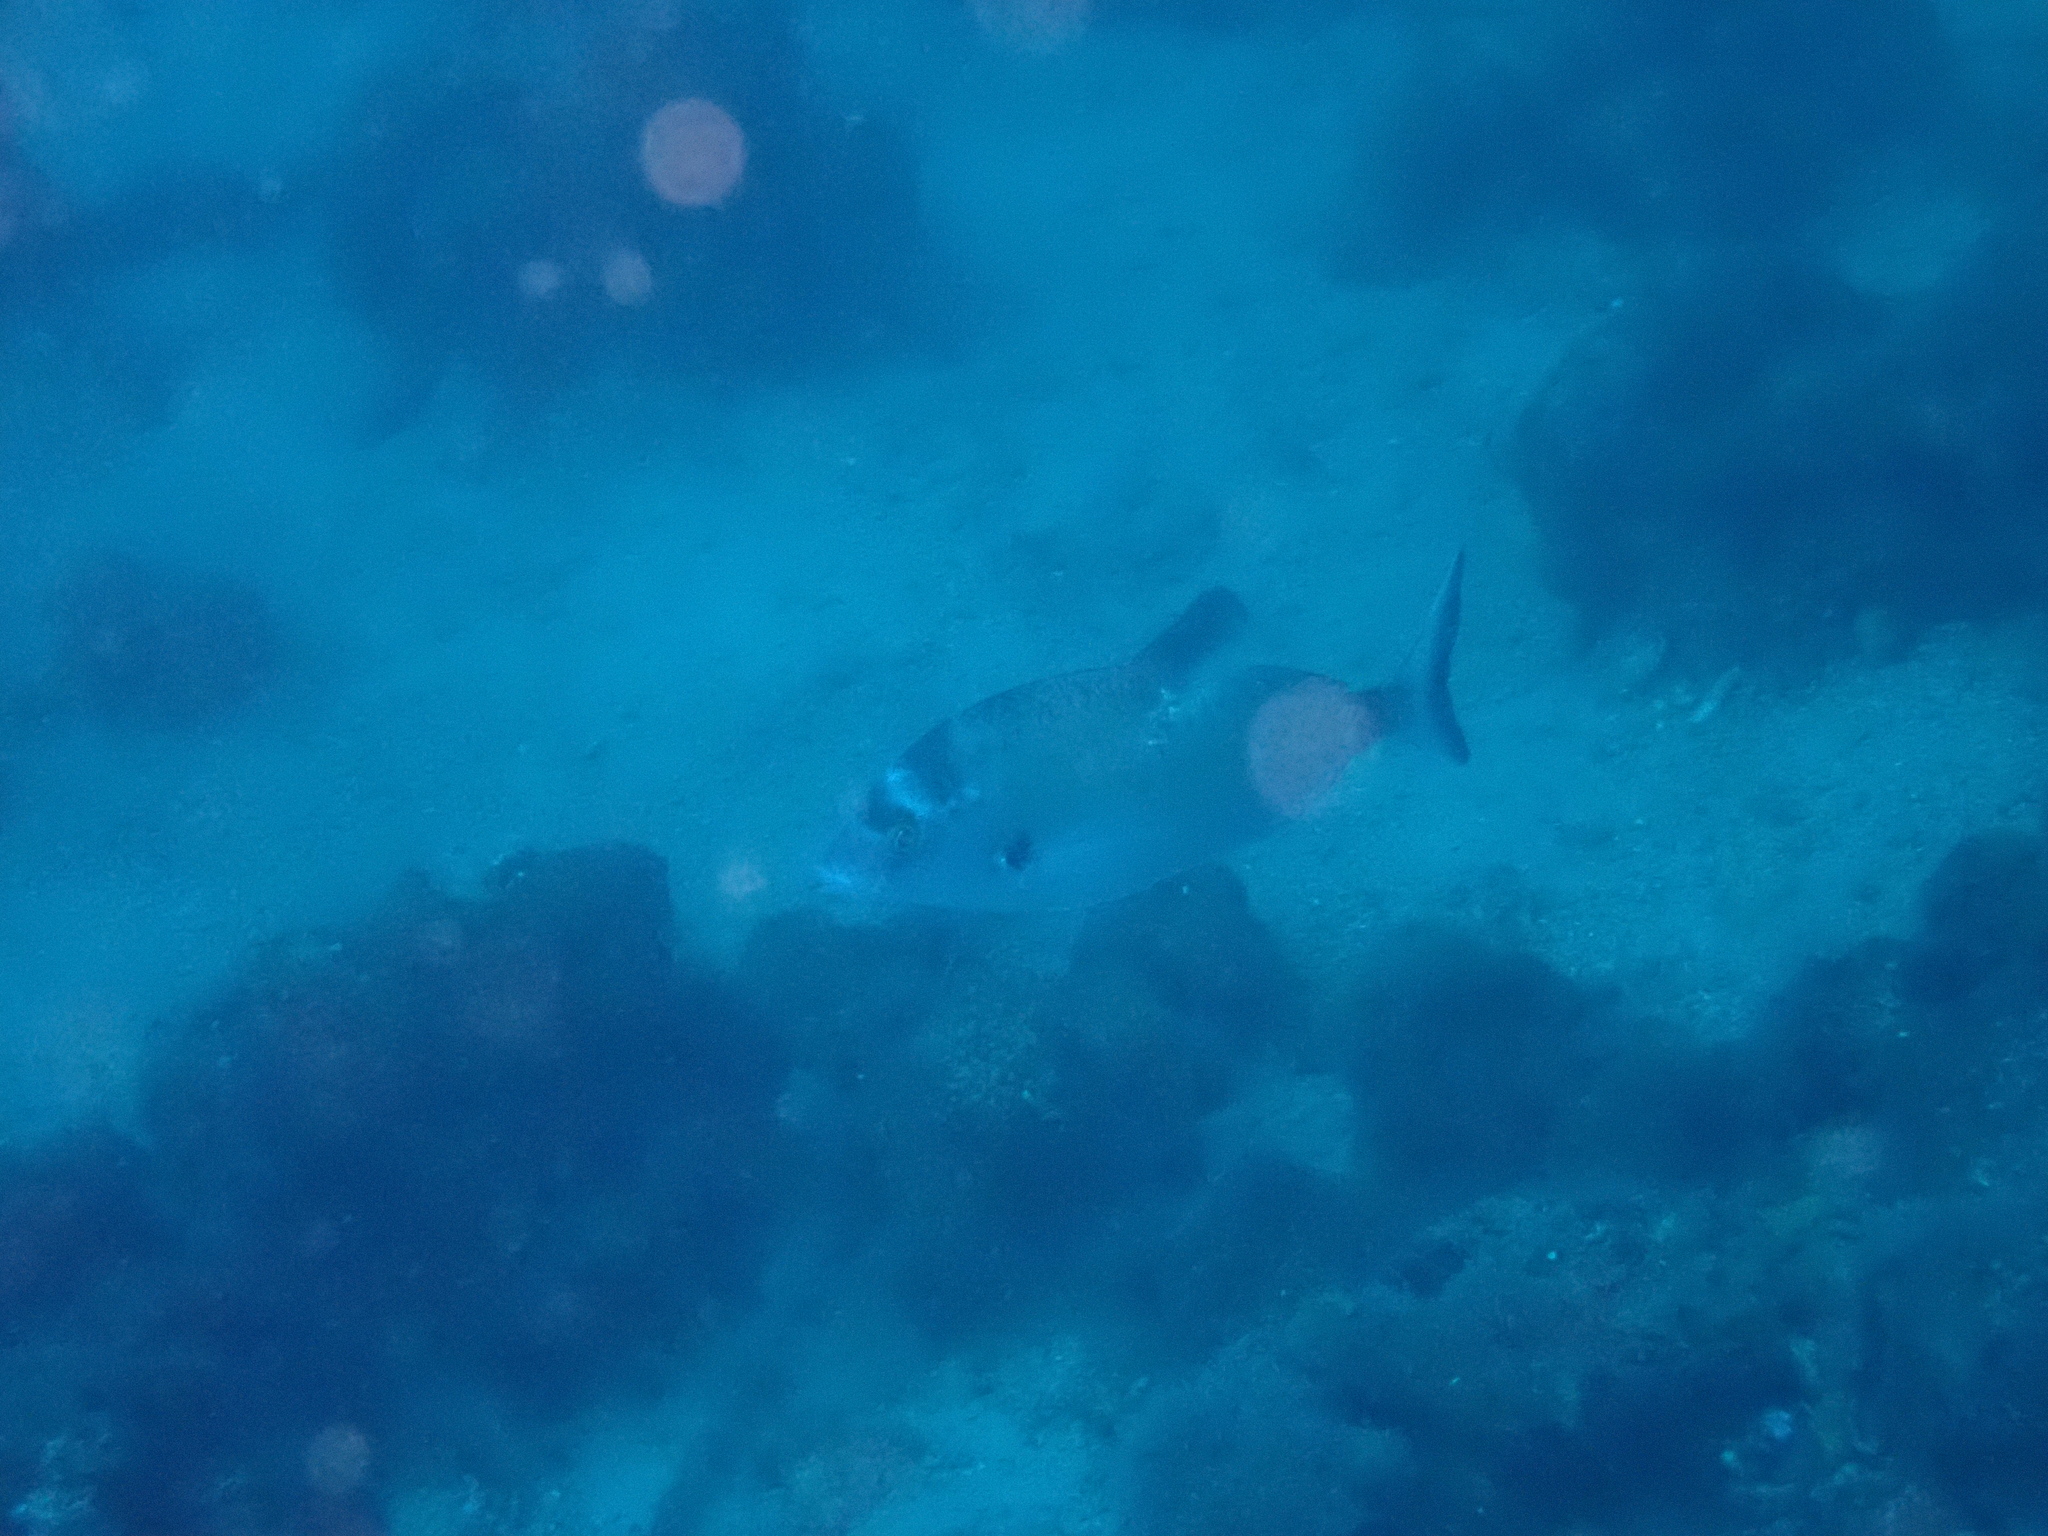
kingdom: Animalia
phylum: Chordata
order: Perciformes
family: Sparidae
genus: Diplodus
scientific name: Diplodus puntazzo
